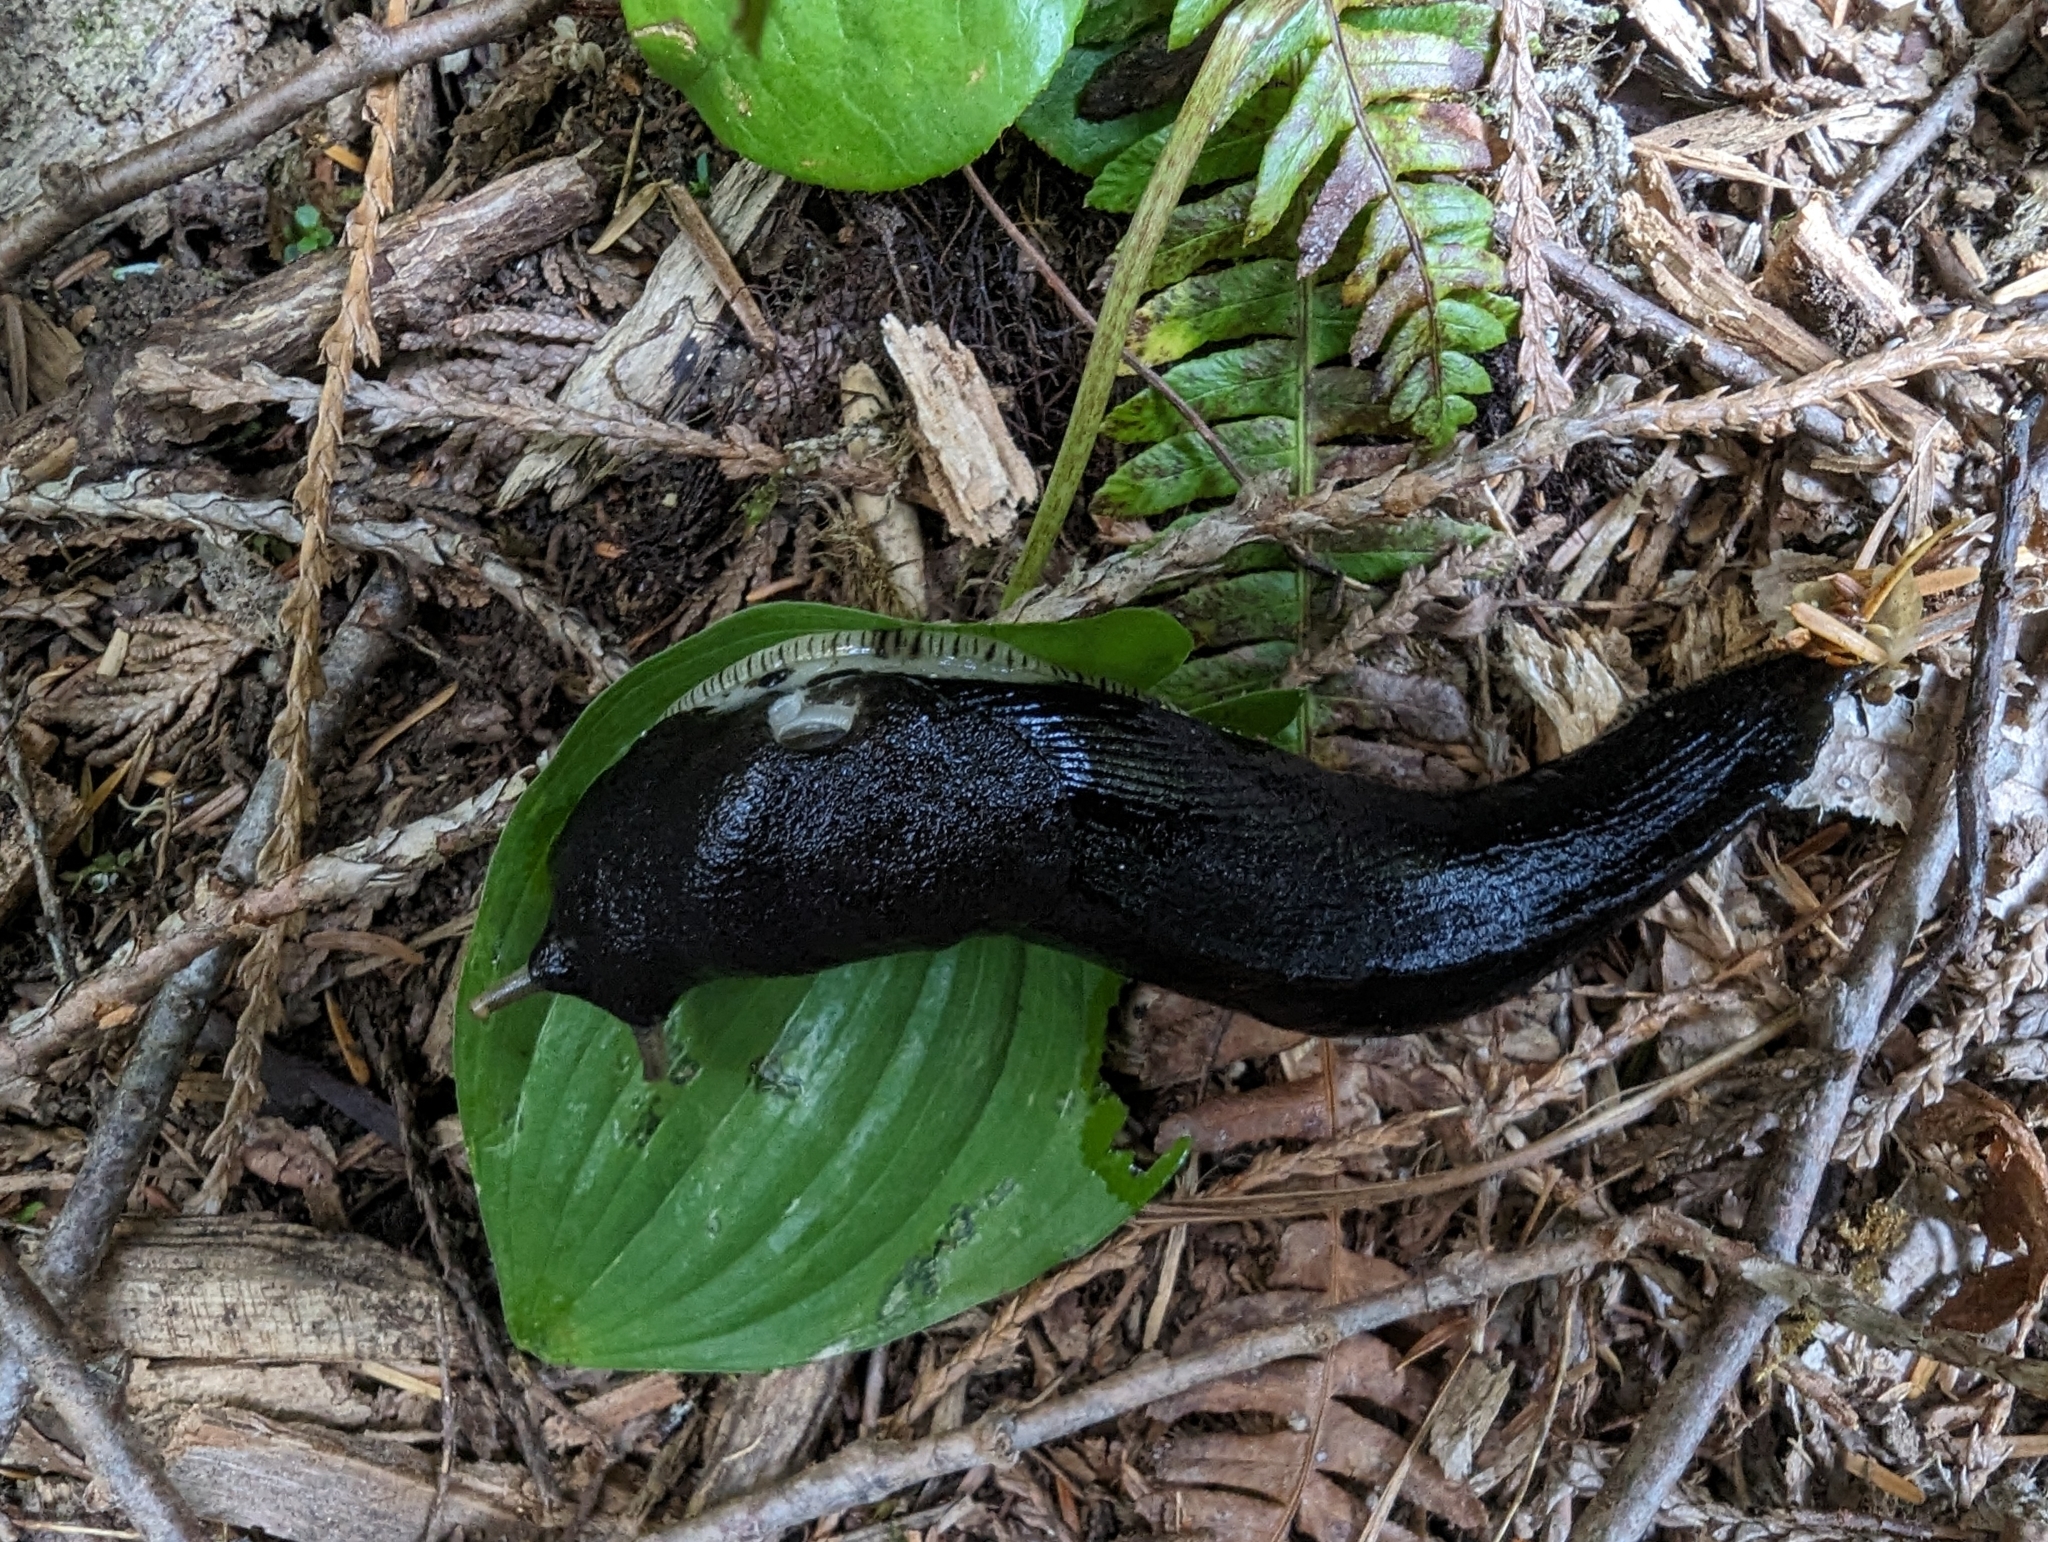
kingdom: Animalia
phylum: Mollusca
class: Gastropoda
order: Stylommatophora
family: Ariolimacidae
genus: Ariolimax
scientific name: Ariolimax columbianus
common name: Pacific banana slug
